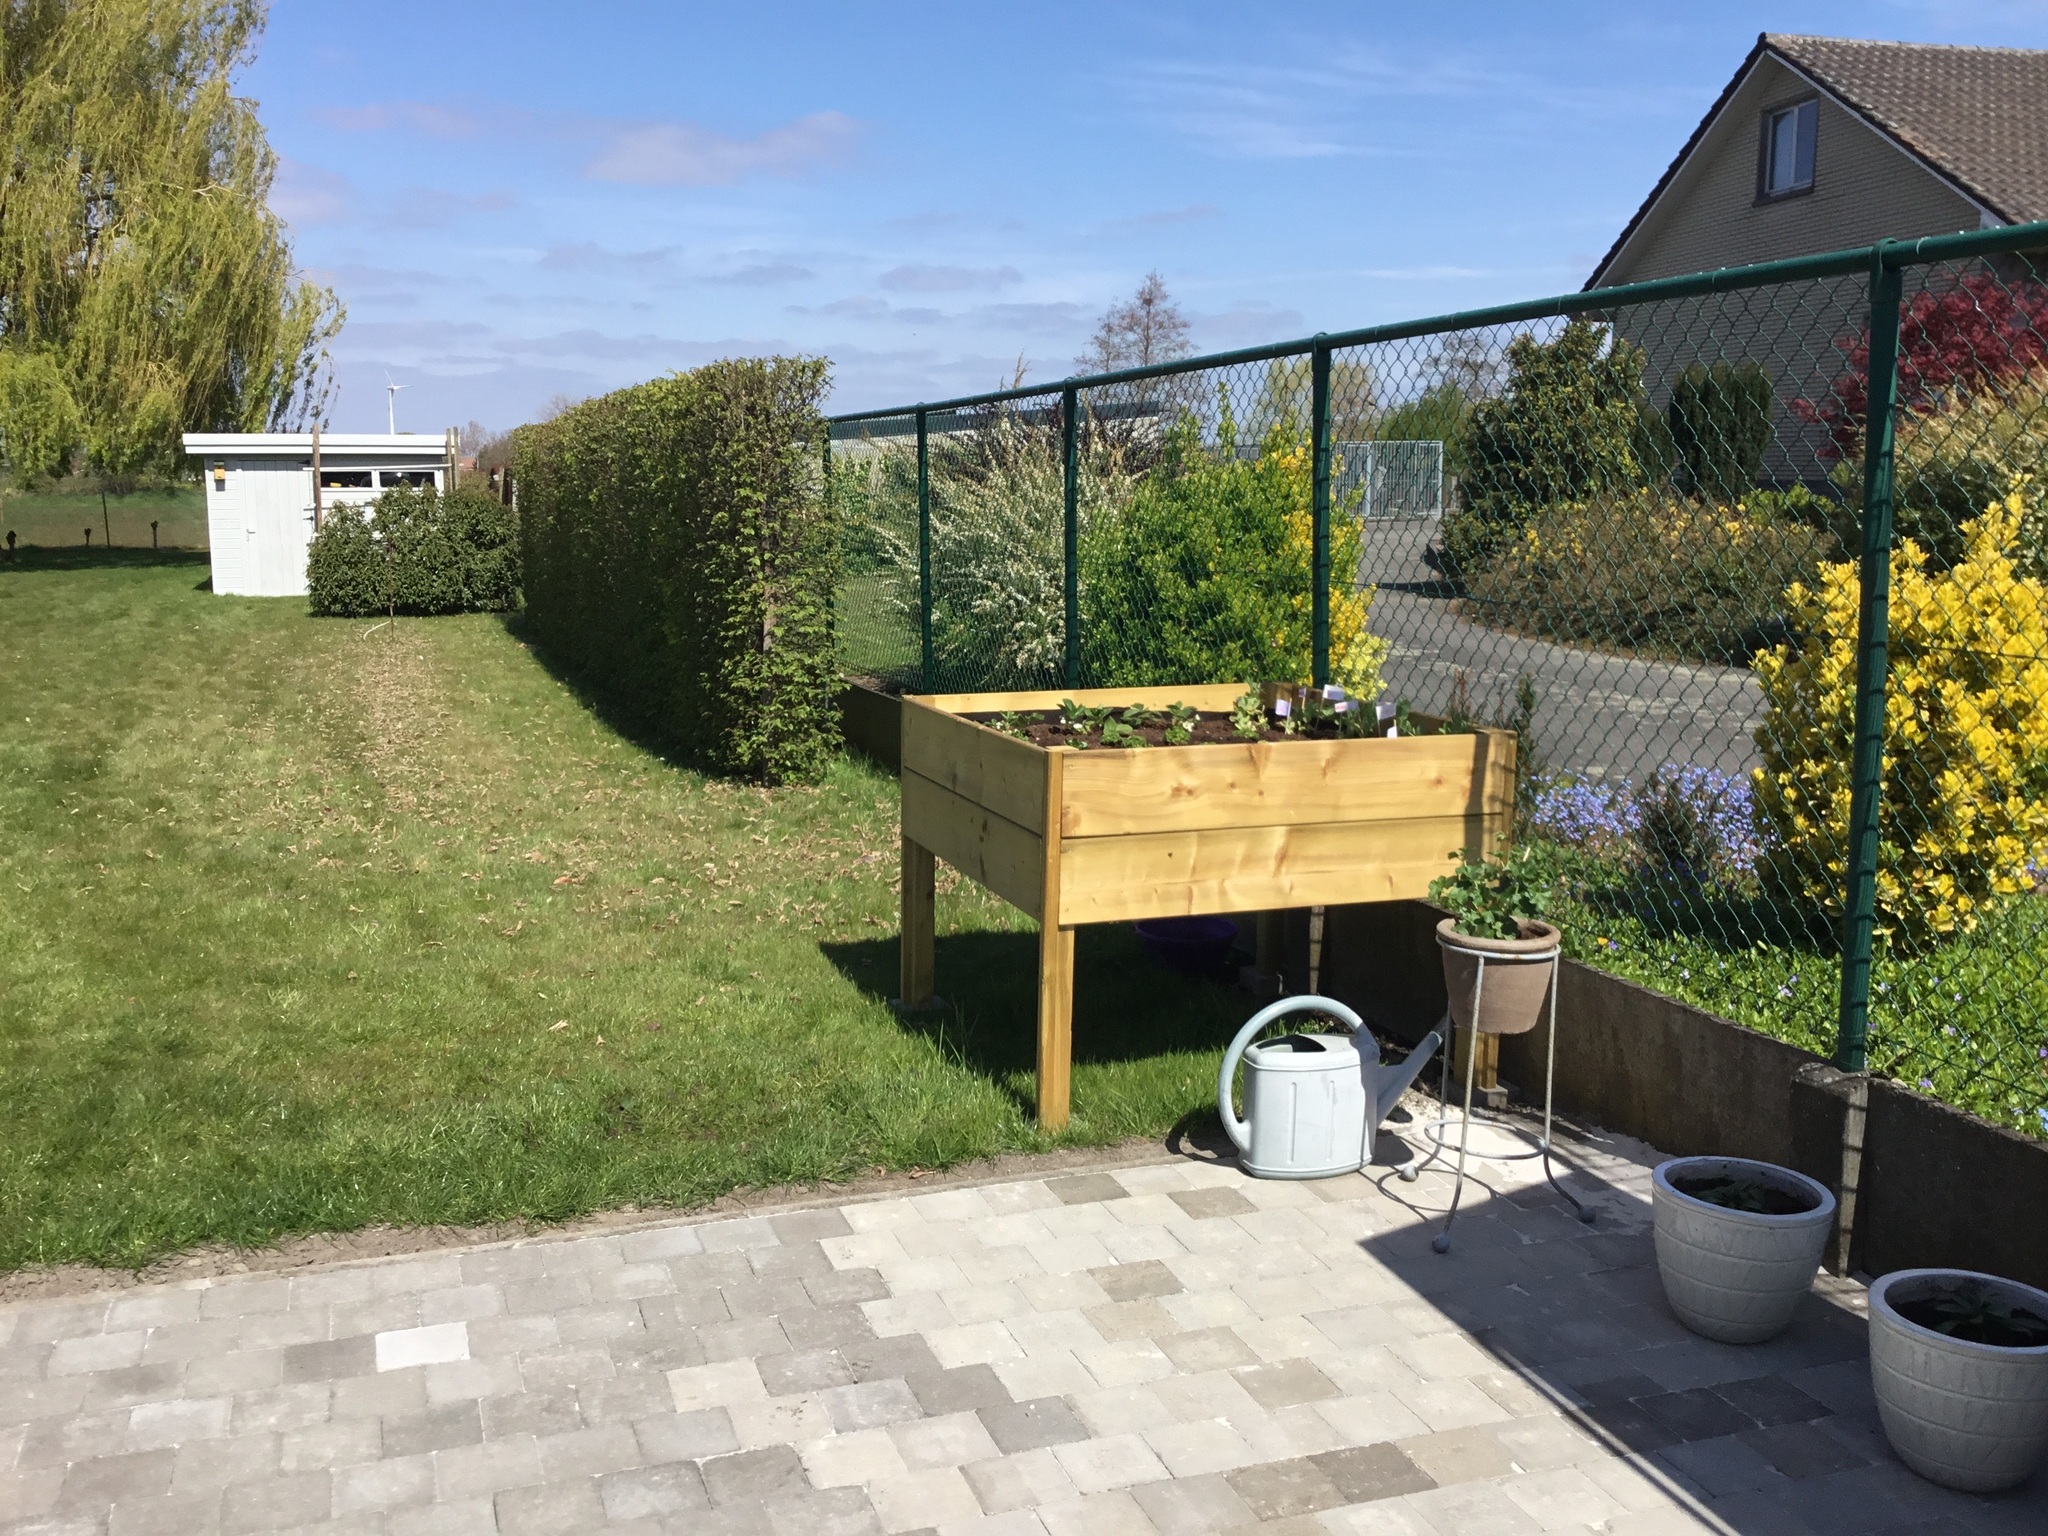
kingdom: Animalia
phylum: Arthropoda
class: Insecta
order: Hymenoptera
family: Vespidae
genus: Vespa
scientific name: Vespa crabro
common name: Hornet
